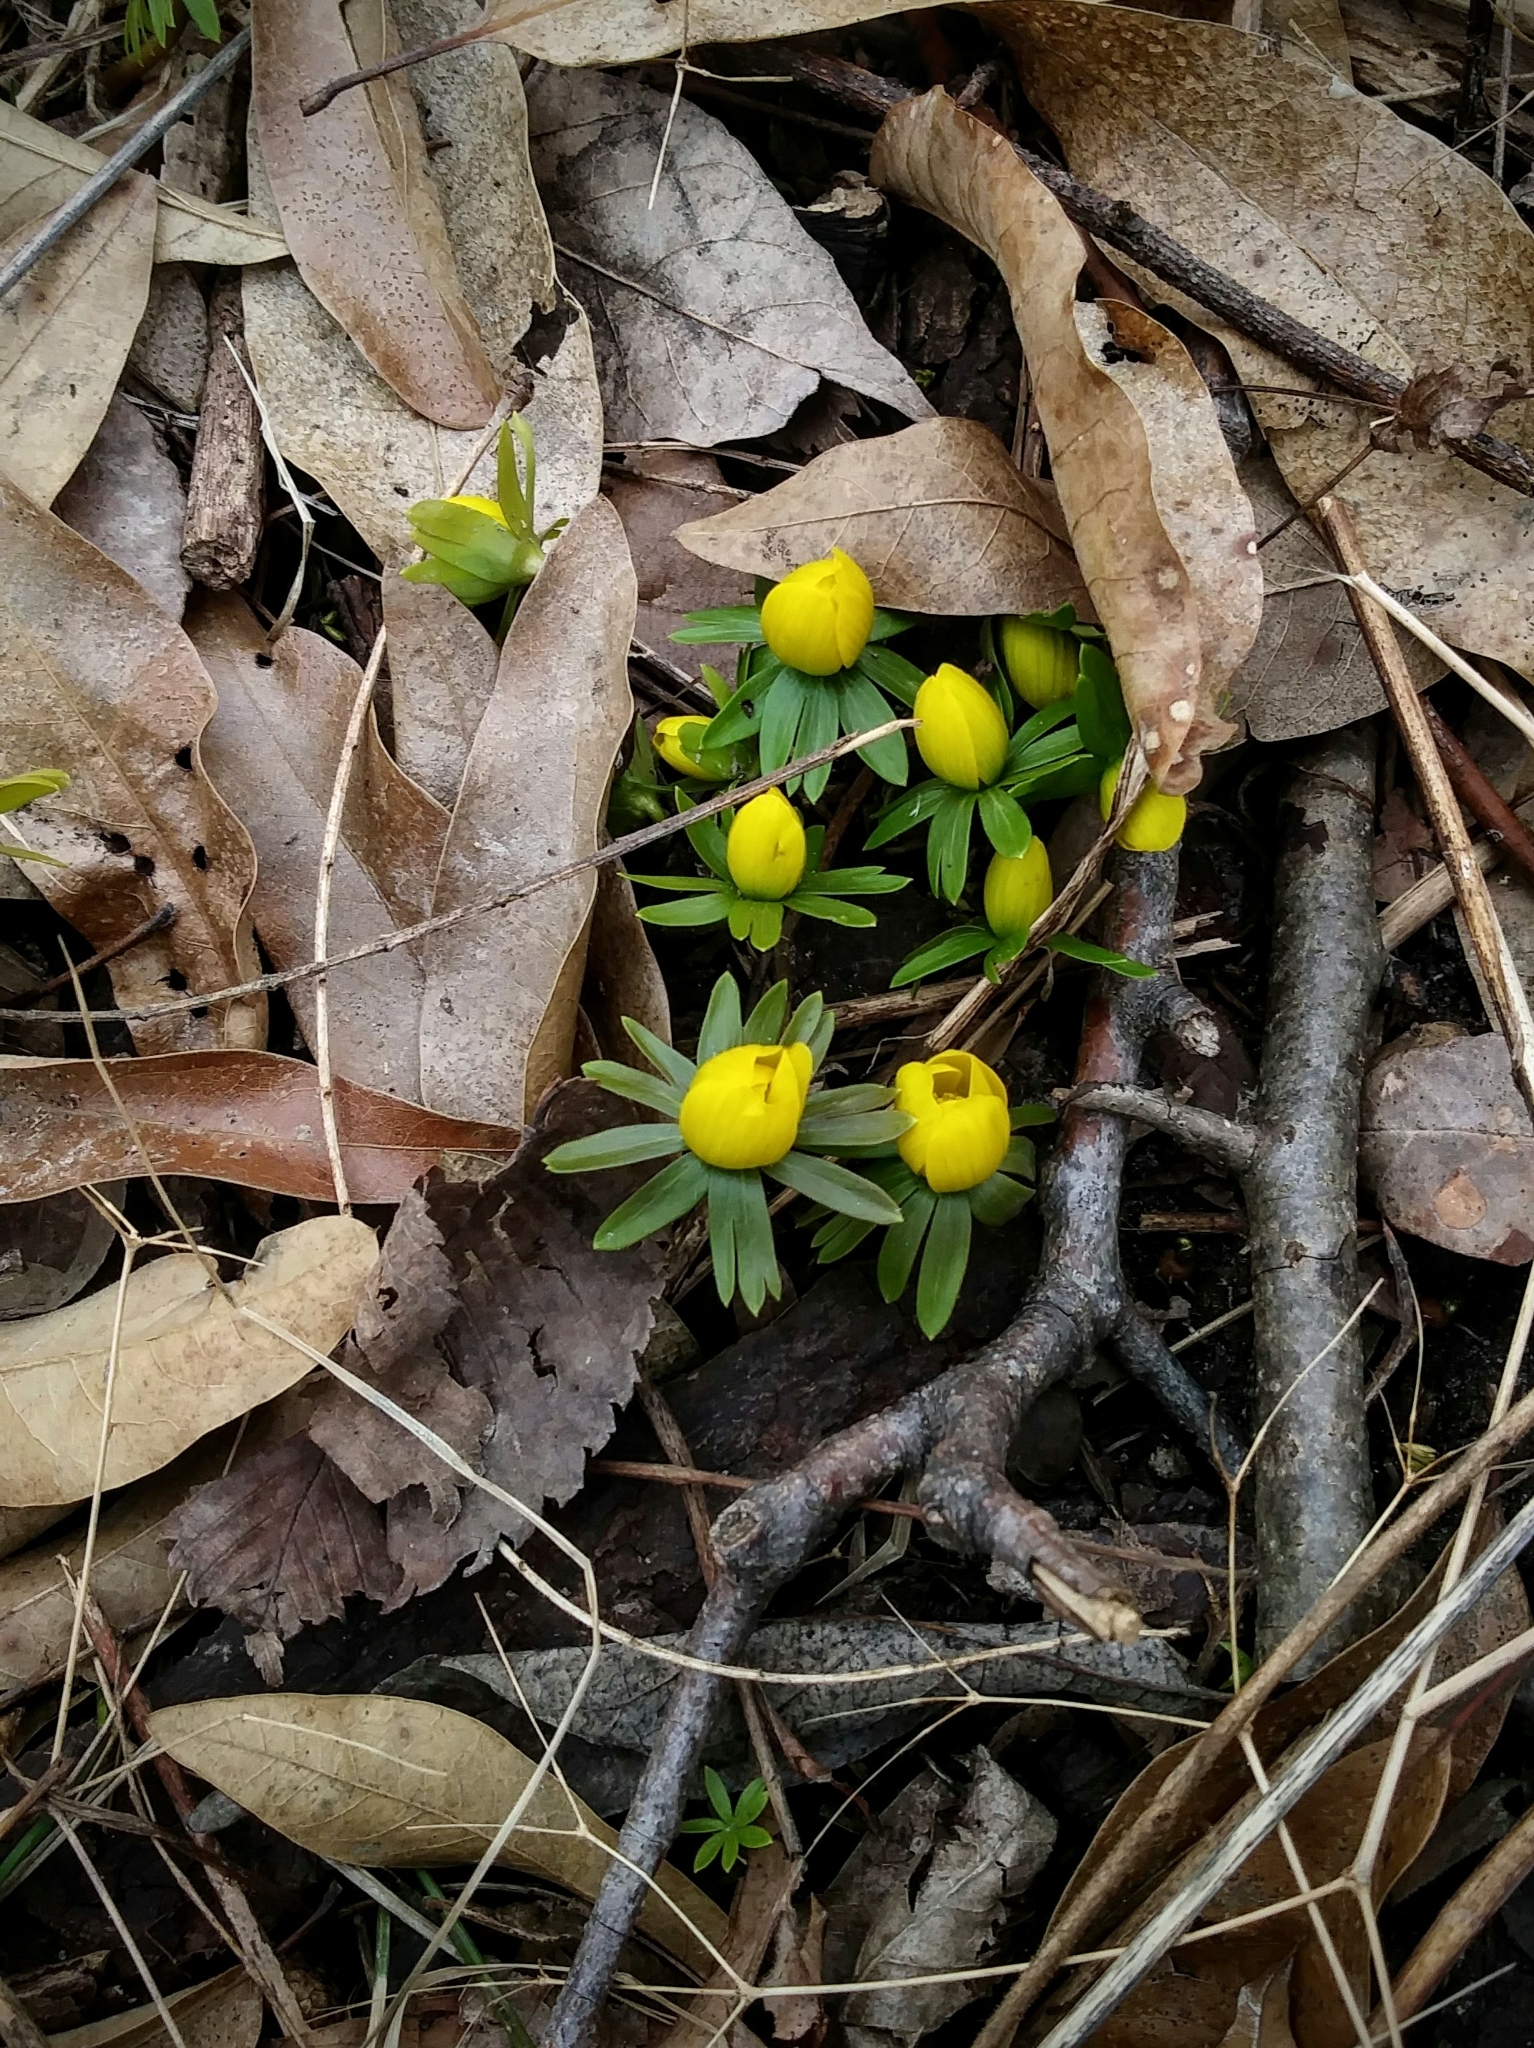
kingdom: Plantae
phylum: Tracheophyta
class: Magnoliopsida
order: Ranunculales
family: Ranunculaceae
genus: Eranthis
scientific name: Eranthis hyemalis
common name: Winter aconite
